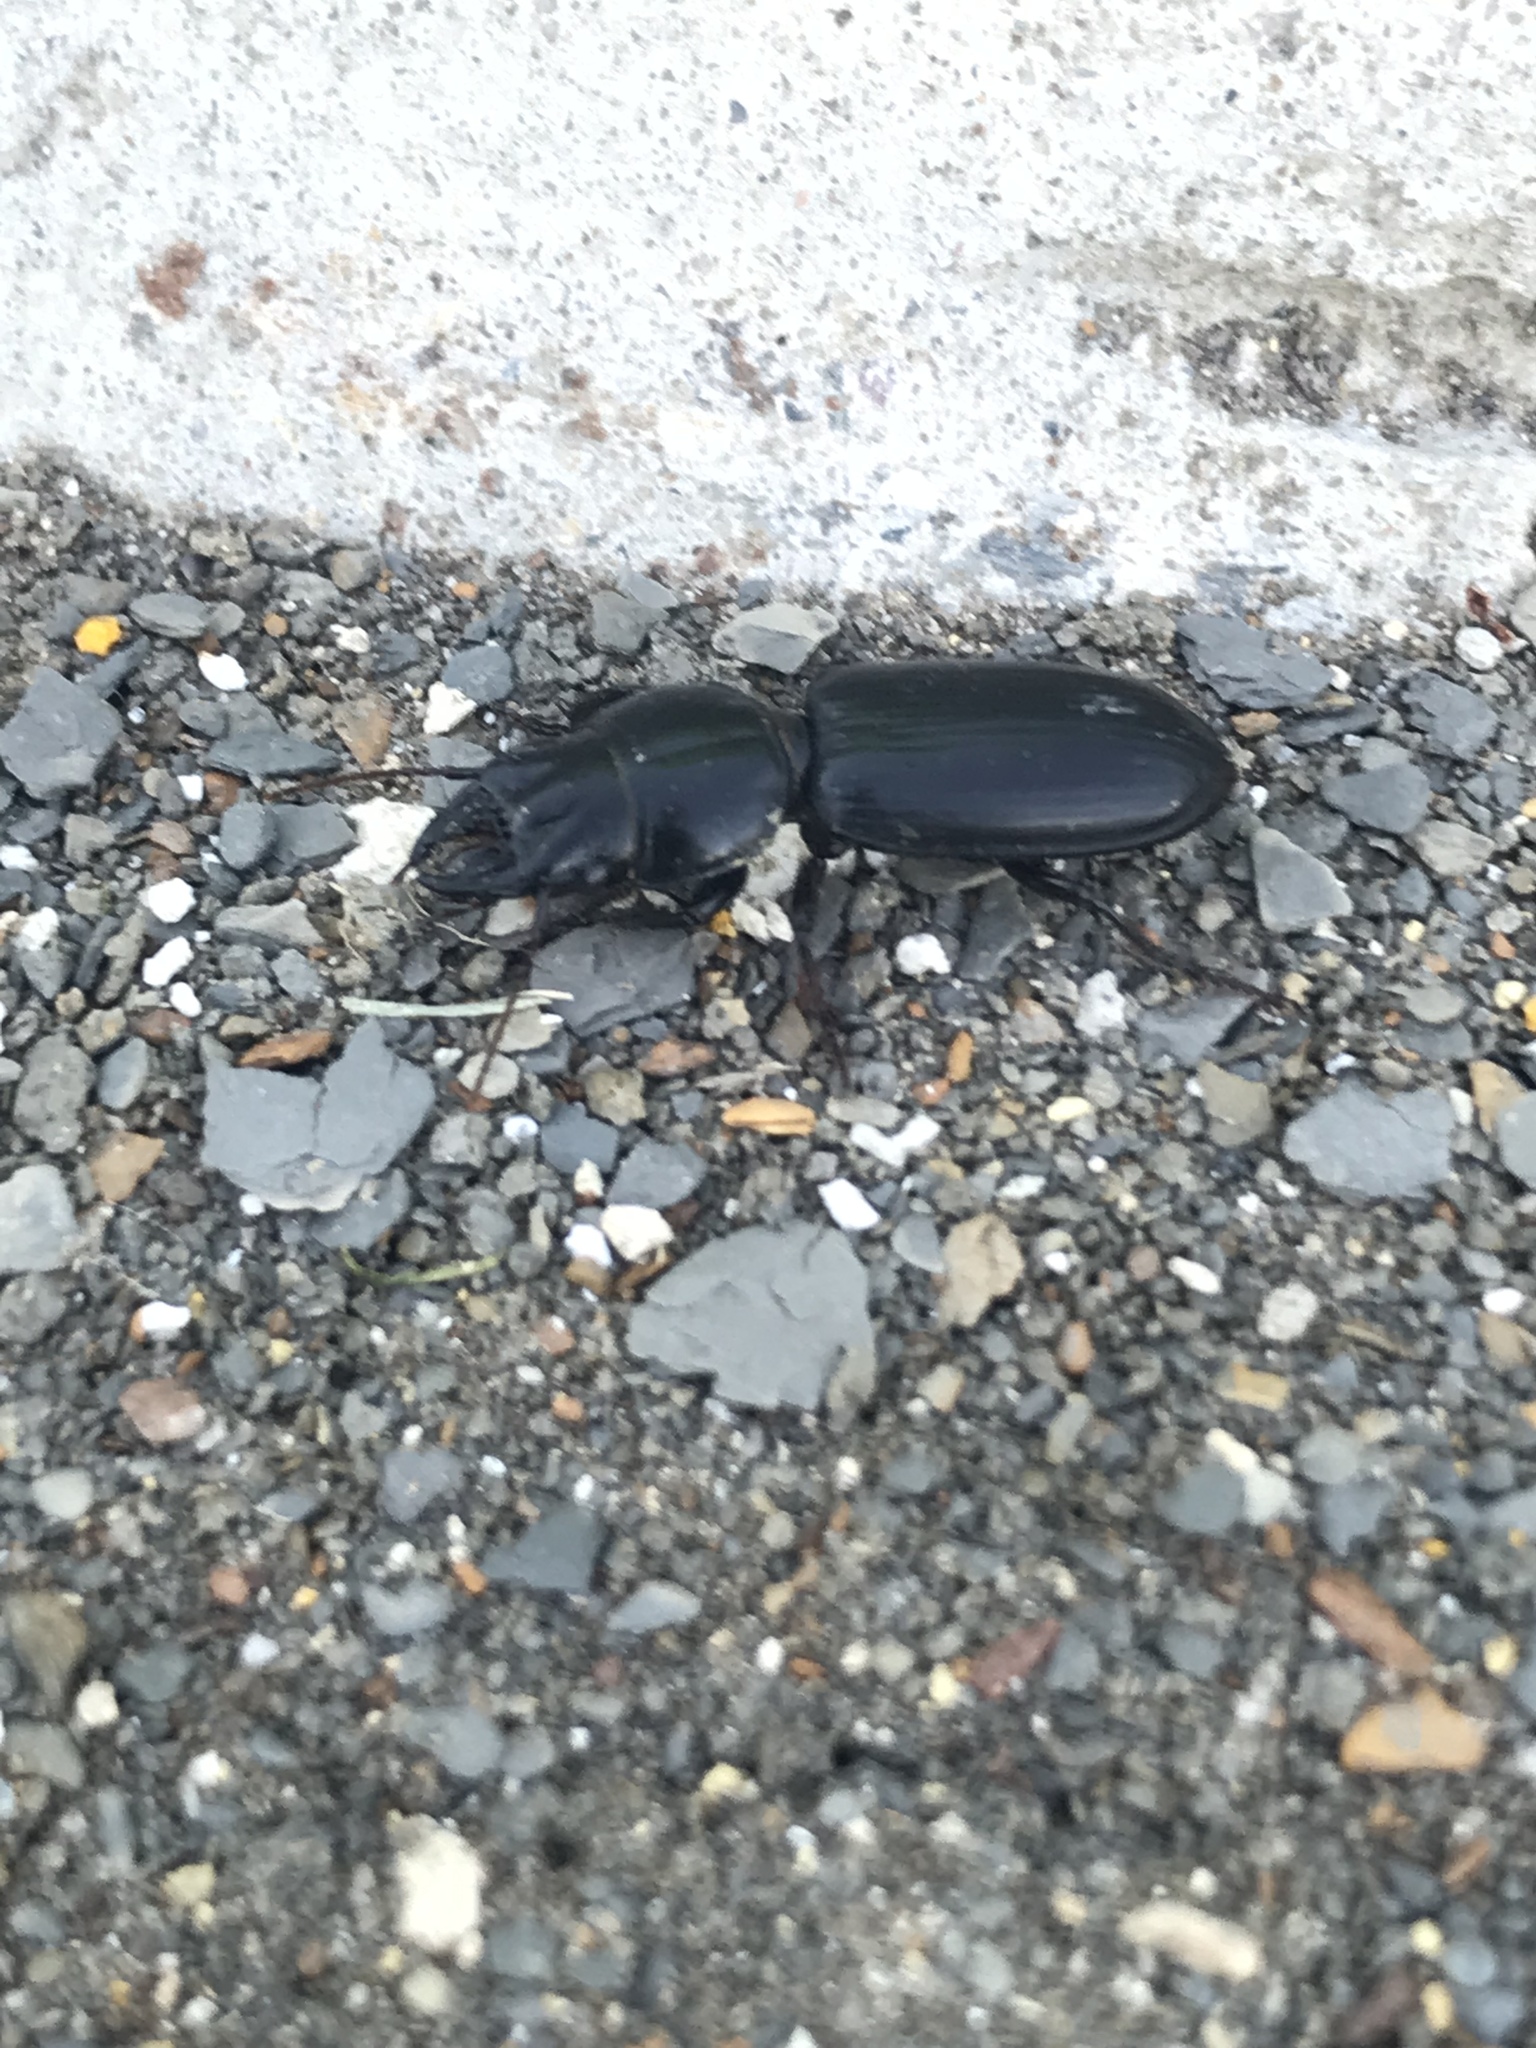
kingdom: Animalia
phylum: Arthropoda
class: Insecta
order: Coleoptera
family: Carabidae
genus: Scarites
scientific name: Scarites subterraneus
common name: Big-headed ground beetle
